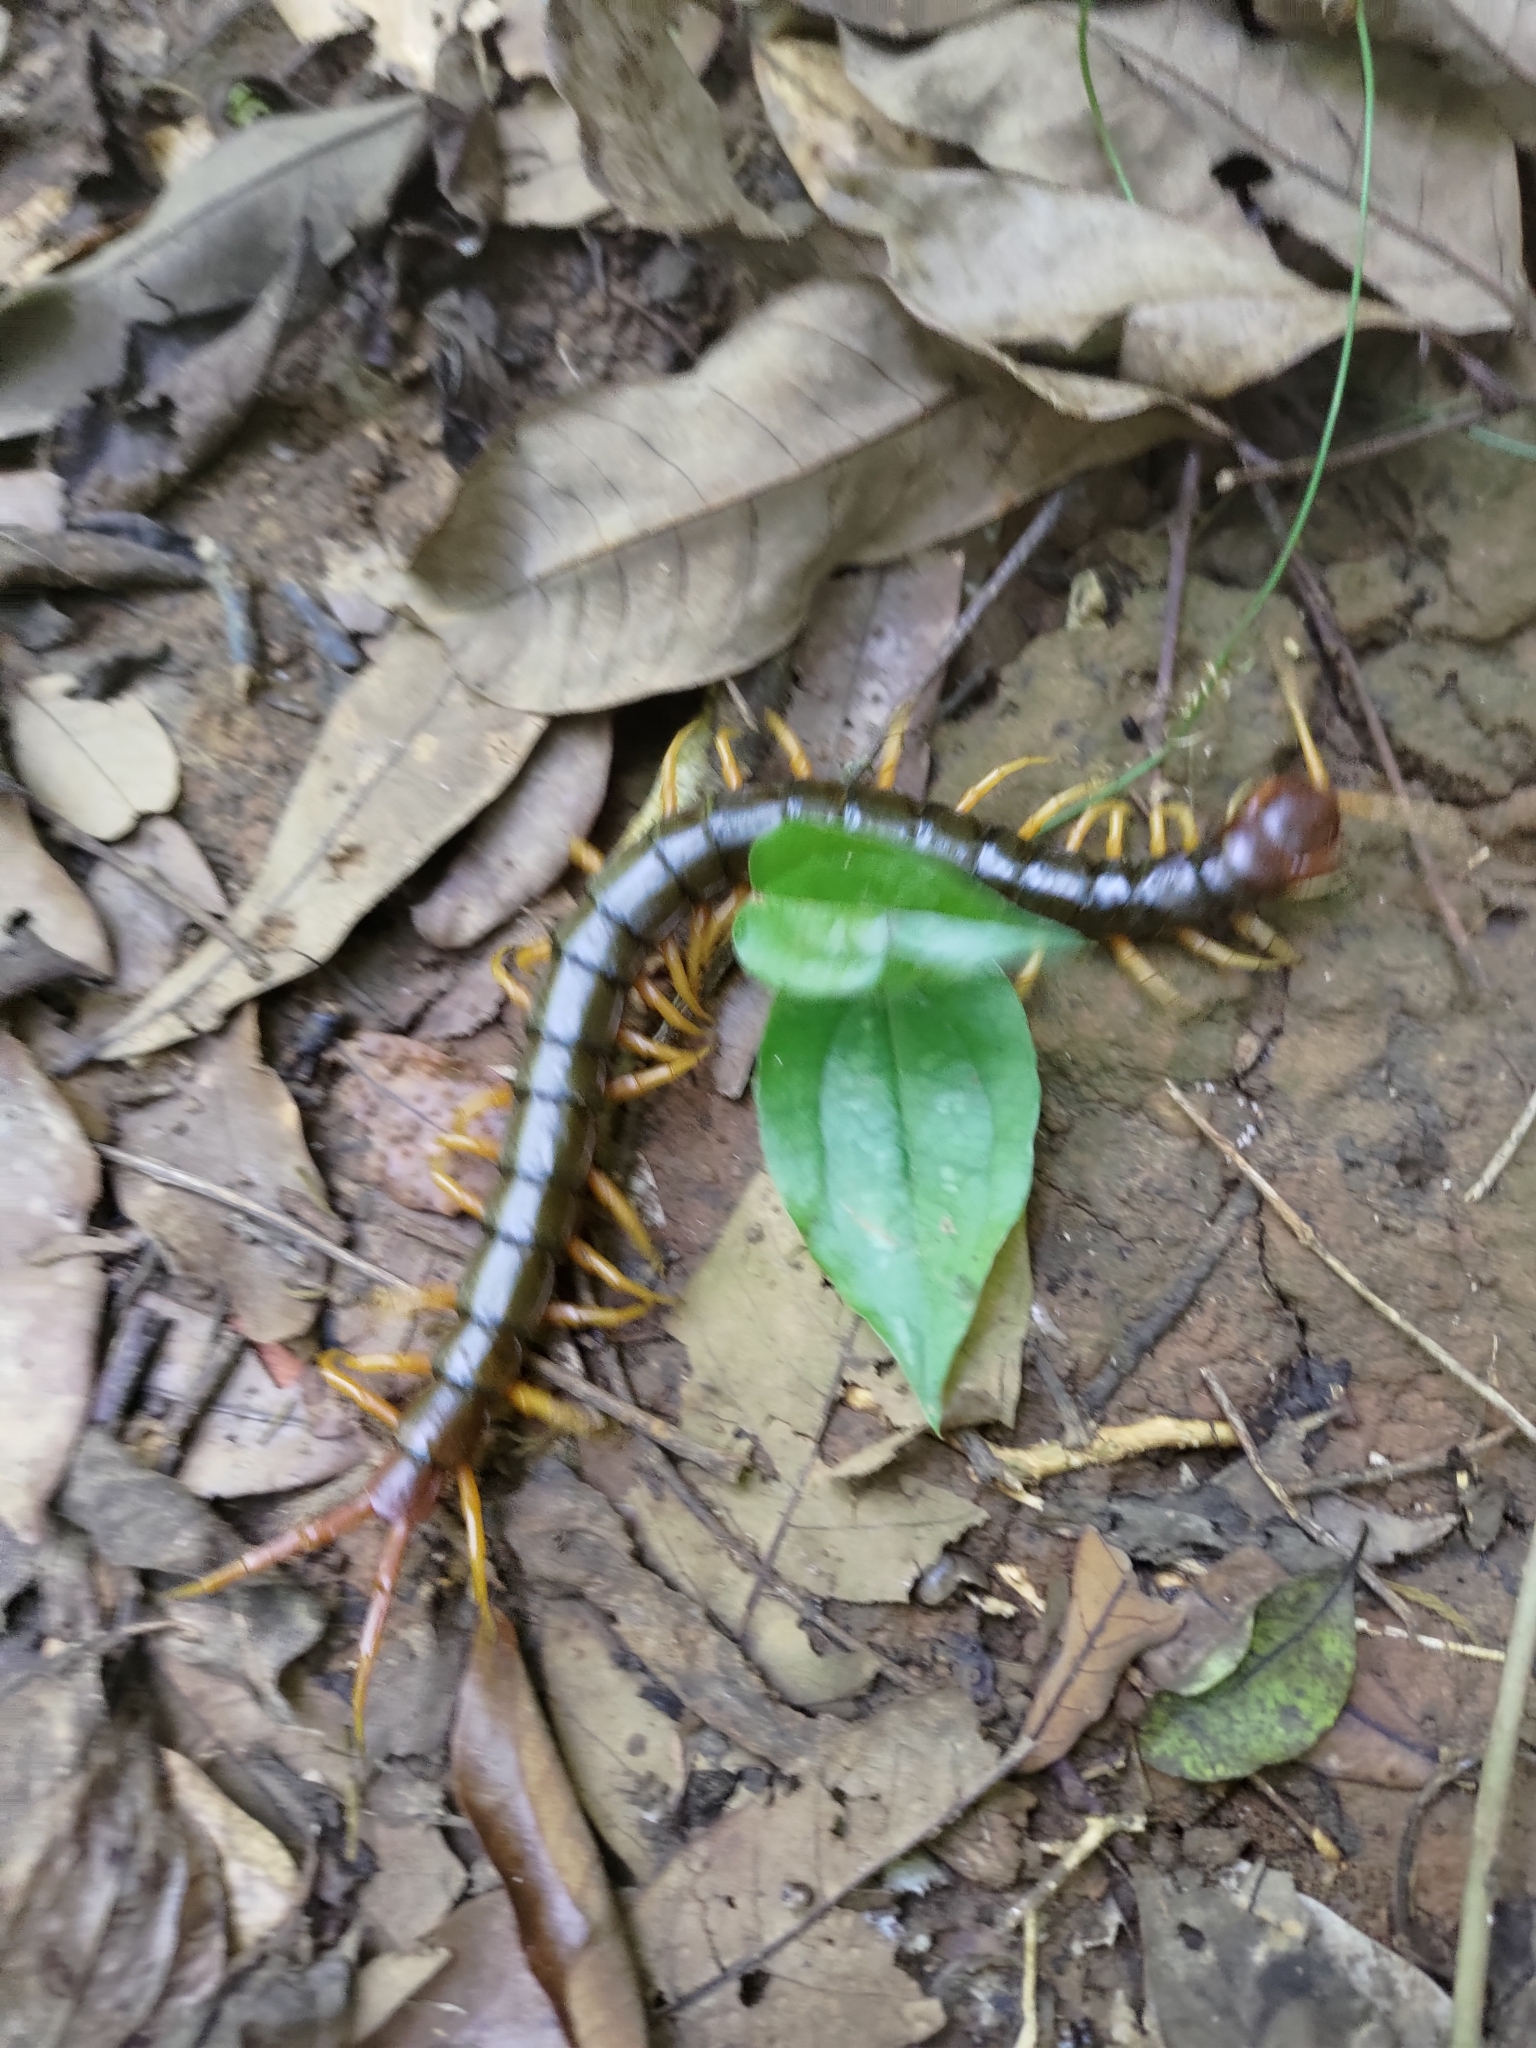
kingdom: Animalia
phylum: Arthropoda
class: Chilopoda
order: Scolopendromorpha
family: Scolopendridae
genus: Scolopendra
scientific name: Scolopendra mutilans
